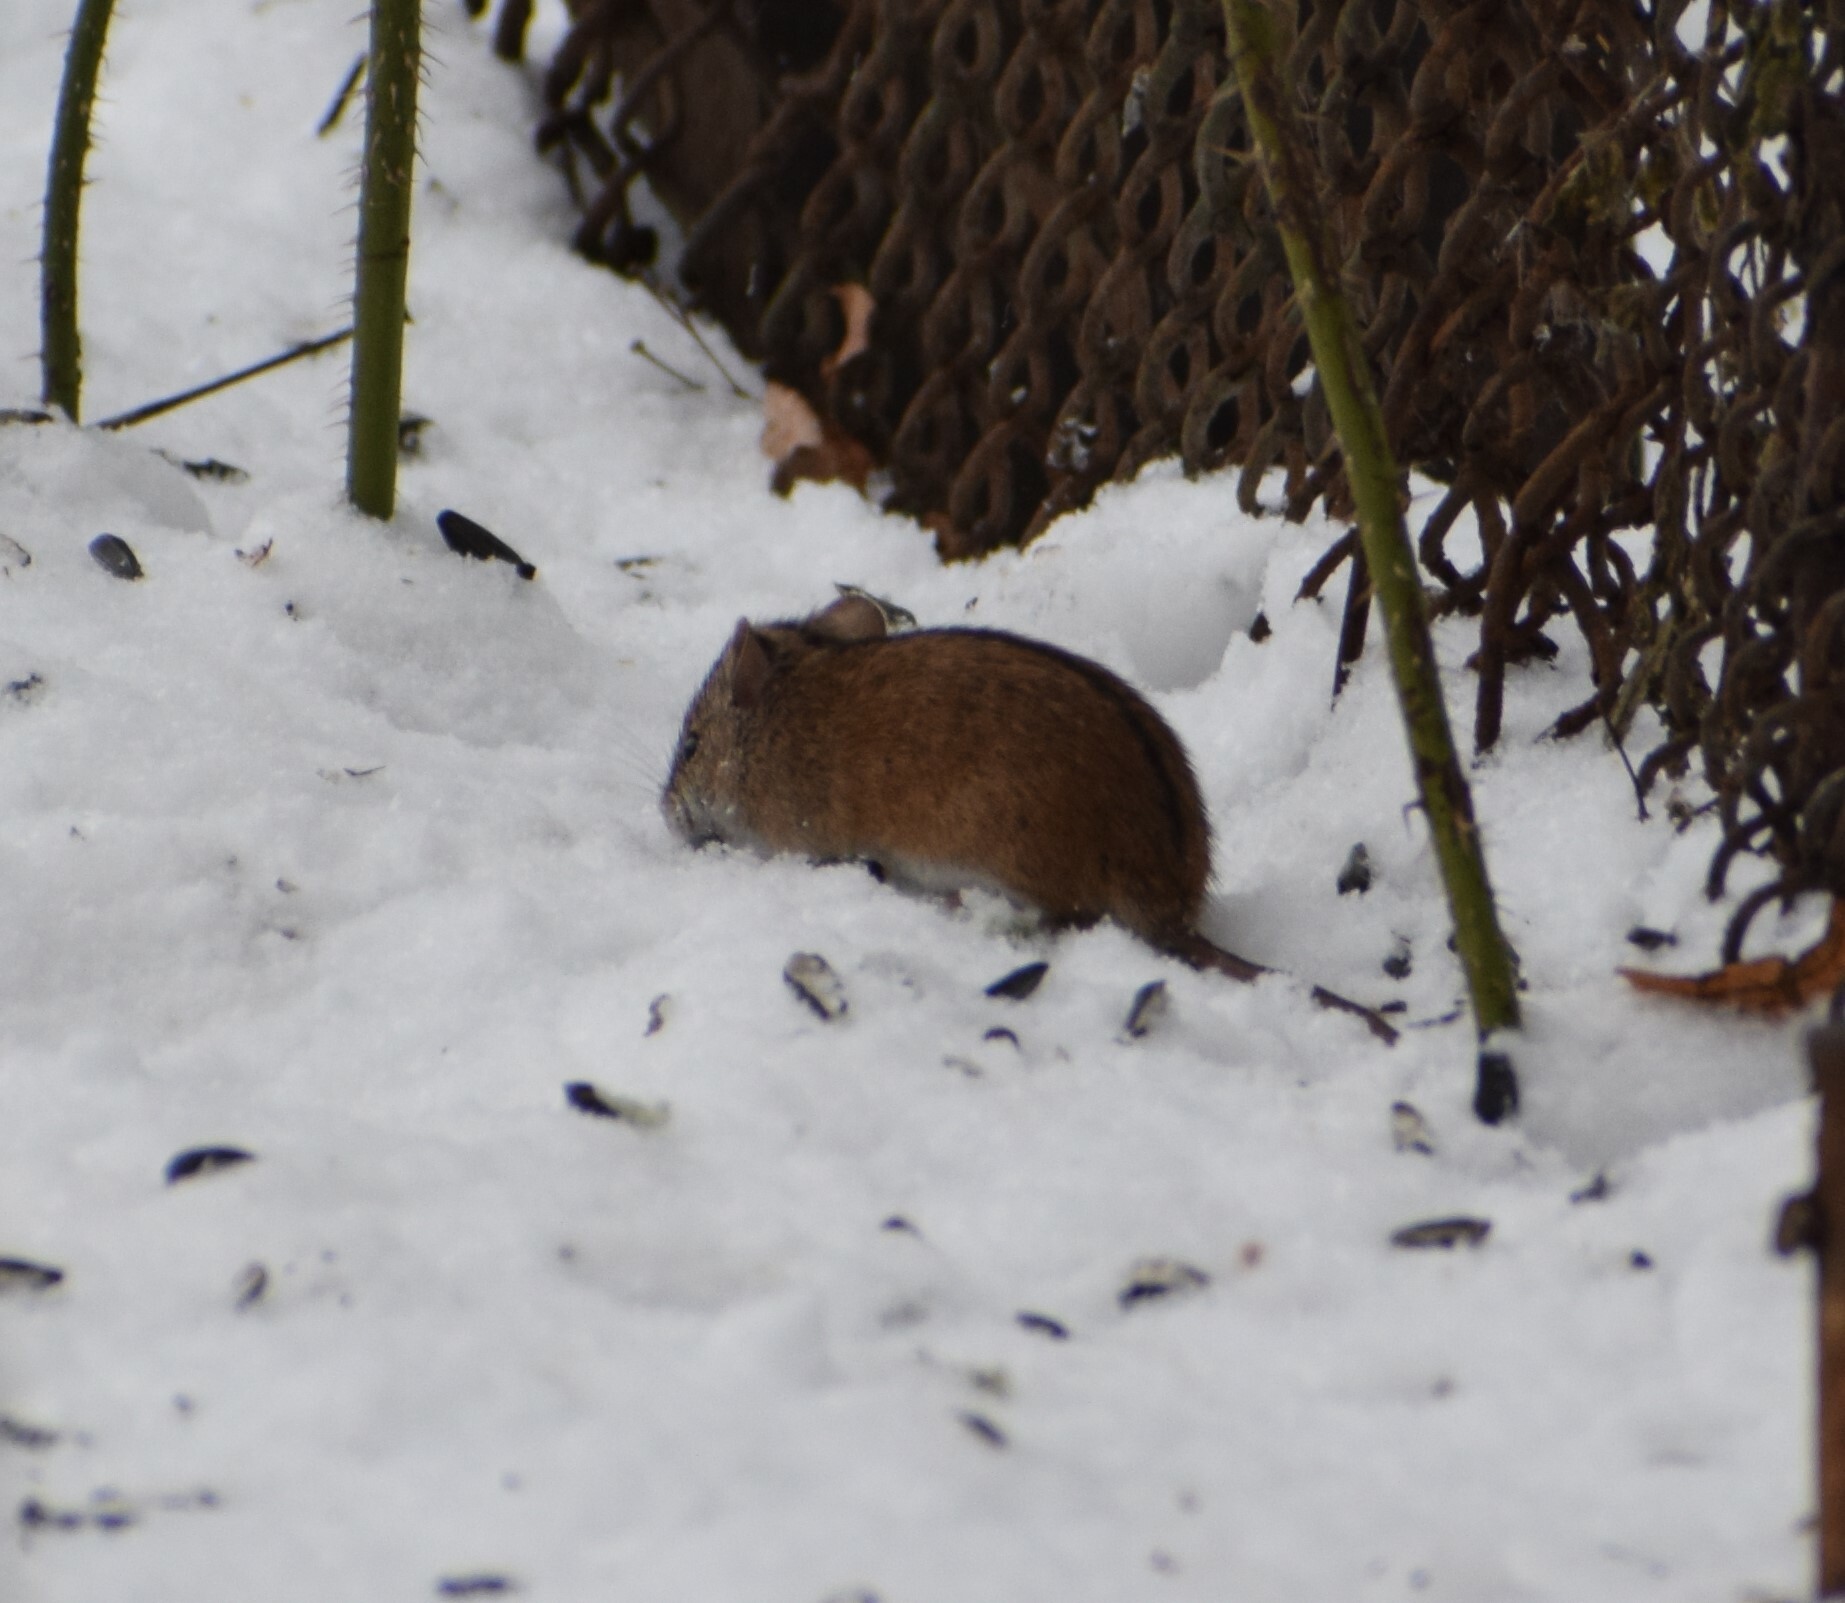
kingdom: Animalia
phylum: Chordata
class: Mammalia
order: Rodentia
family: Muridae
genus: Apodemus
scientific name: Apodemus agrarius
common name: Striped field mouse
